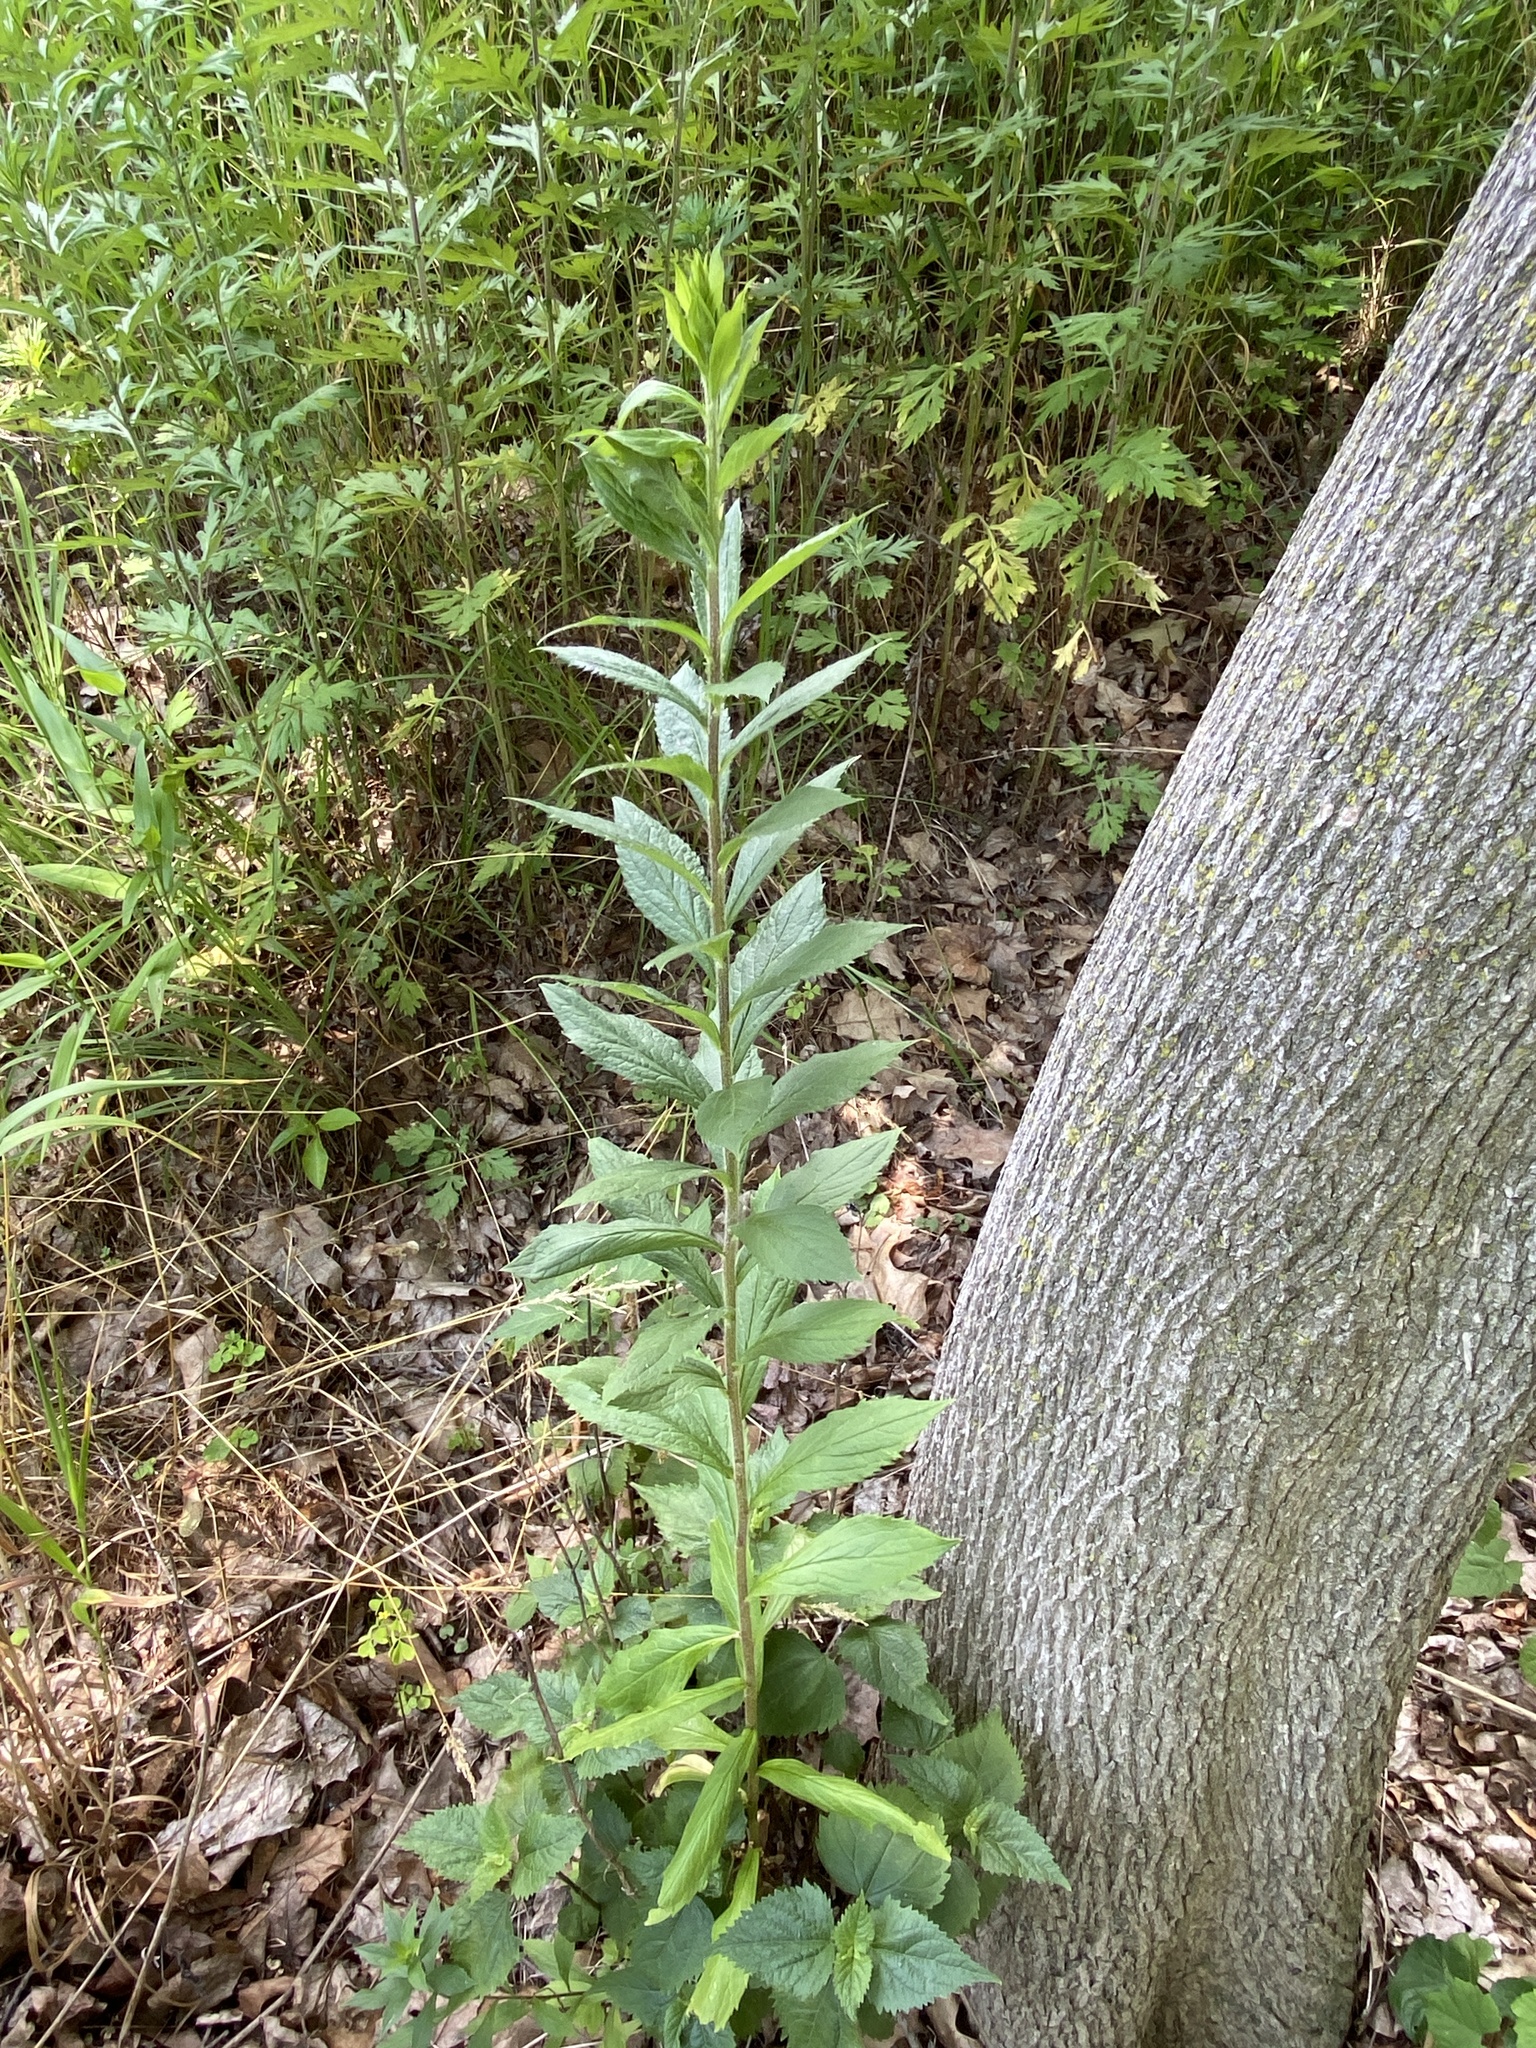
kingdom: Plantae
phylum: Tracheophyta
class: Magnoliopsida
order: Asterales
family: Asteraceae
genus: Solidago
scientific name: Solidago rugosa
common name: Rough-stemmed goldenrod
